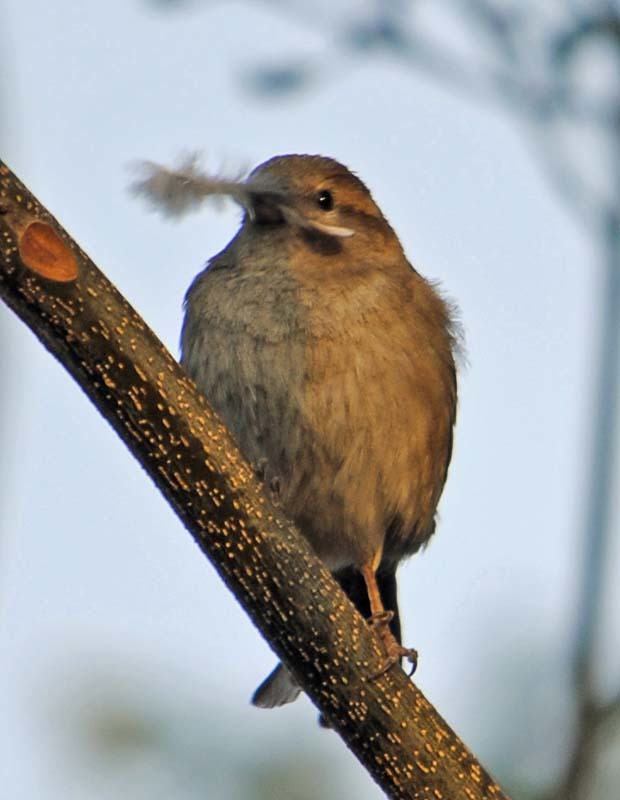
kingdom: Animalia
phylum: Chordata
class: Aves
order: Passeriformes
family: Passeridae
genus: Passer
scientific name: Passer domesticus
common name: House sparrow
